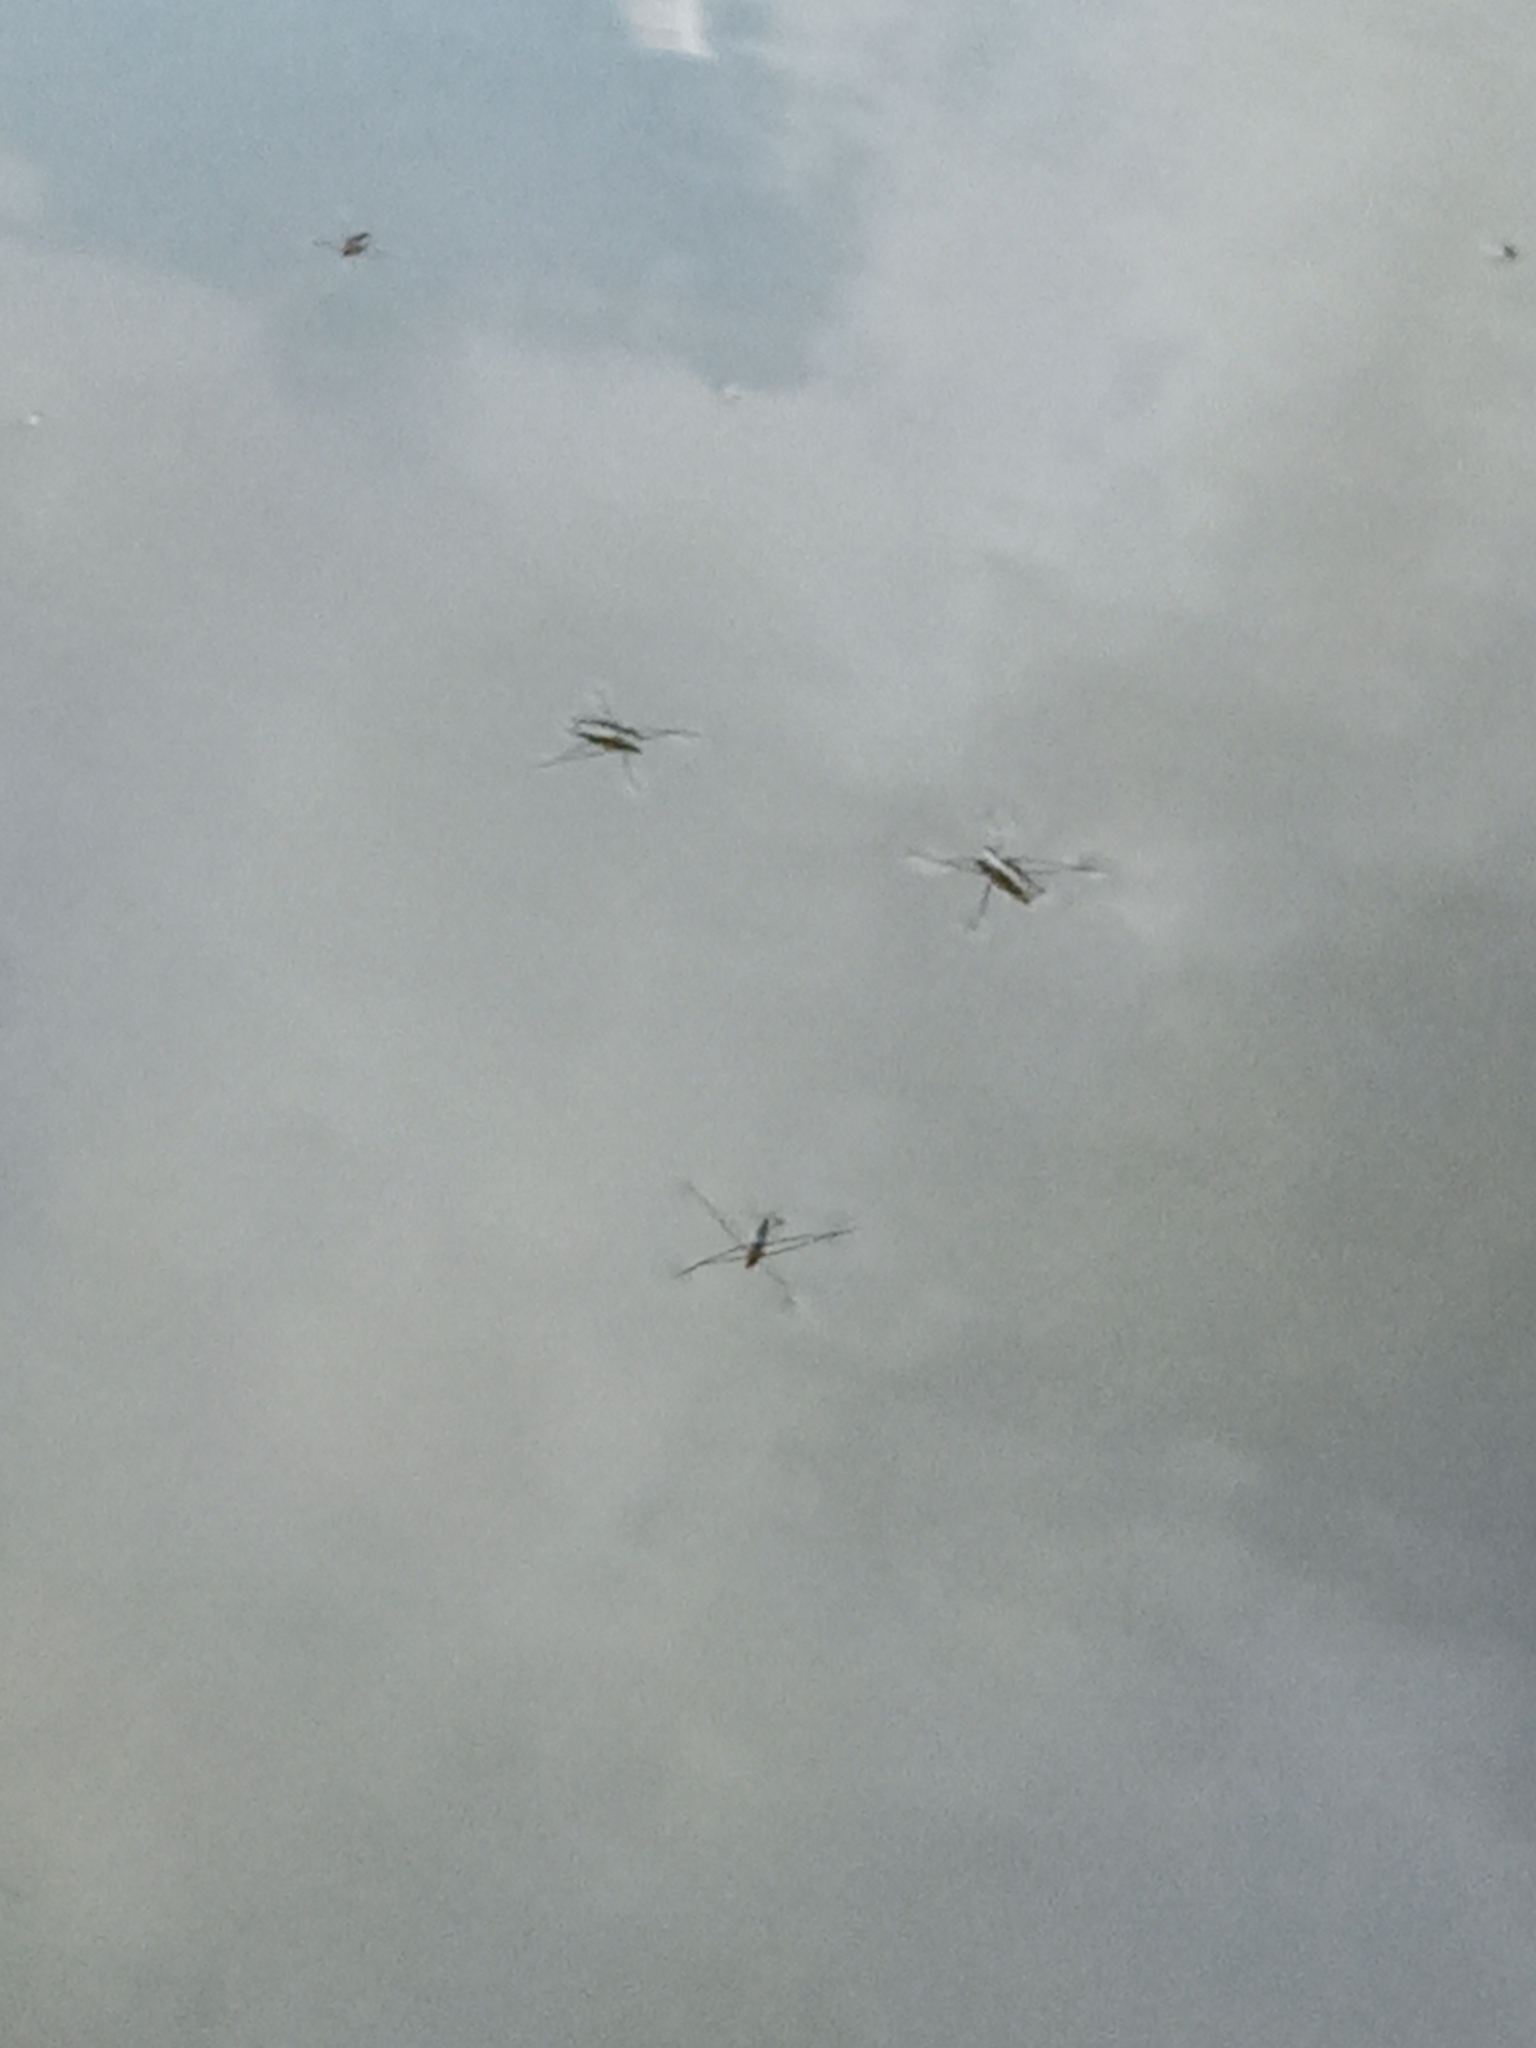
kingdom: Animalia
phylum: Arthropoda
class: Insecta
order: Hemiptera
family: Gerridae
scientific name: Gerridae
